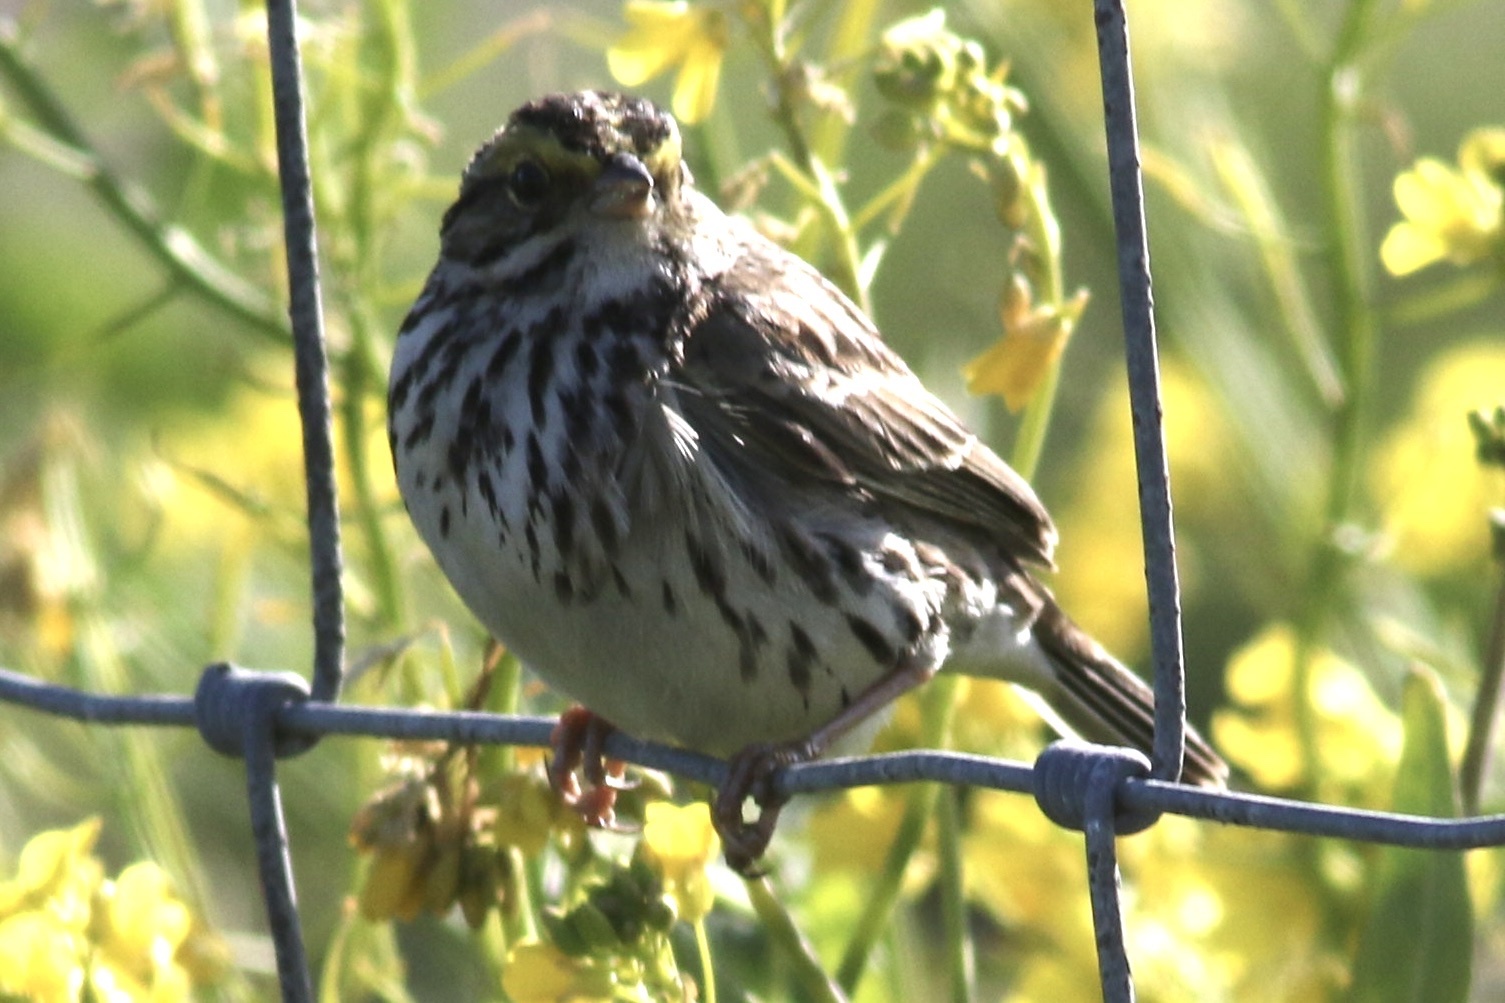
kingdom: Animalia
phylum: Chordata
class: Aves
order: Passeriformes
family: Passerellidae
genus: Passerculus
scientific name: Passerculus sandwichensis
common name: Savannah sparrow
